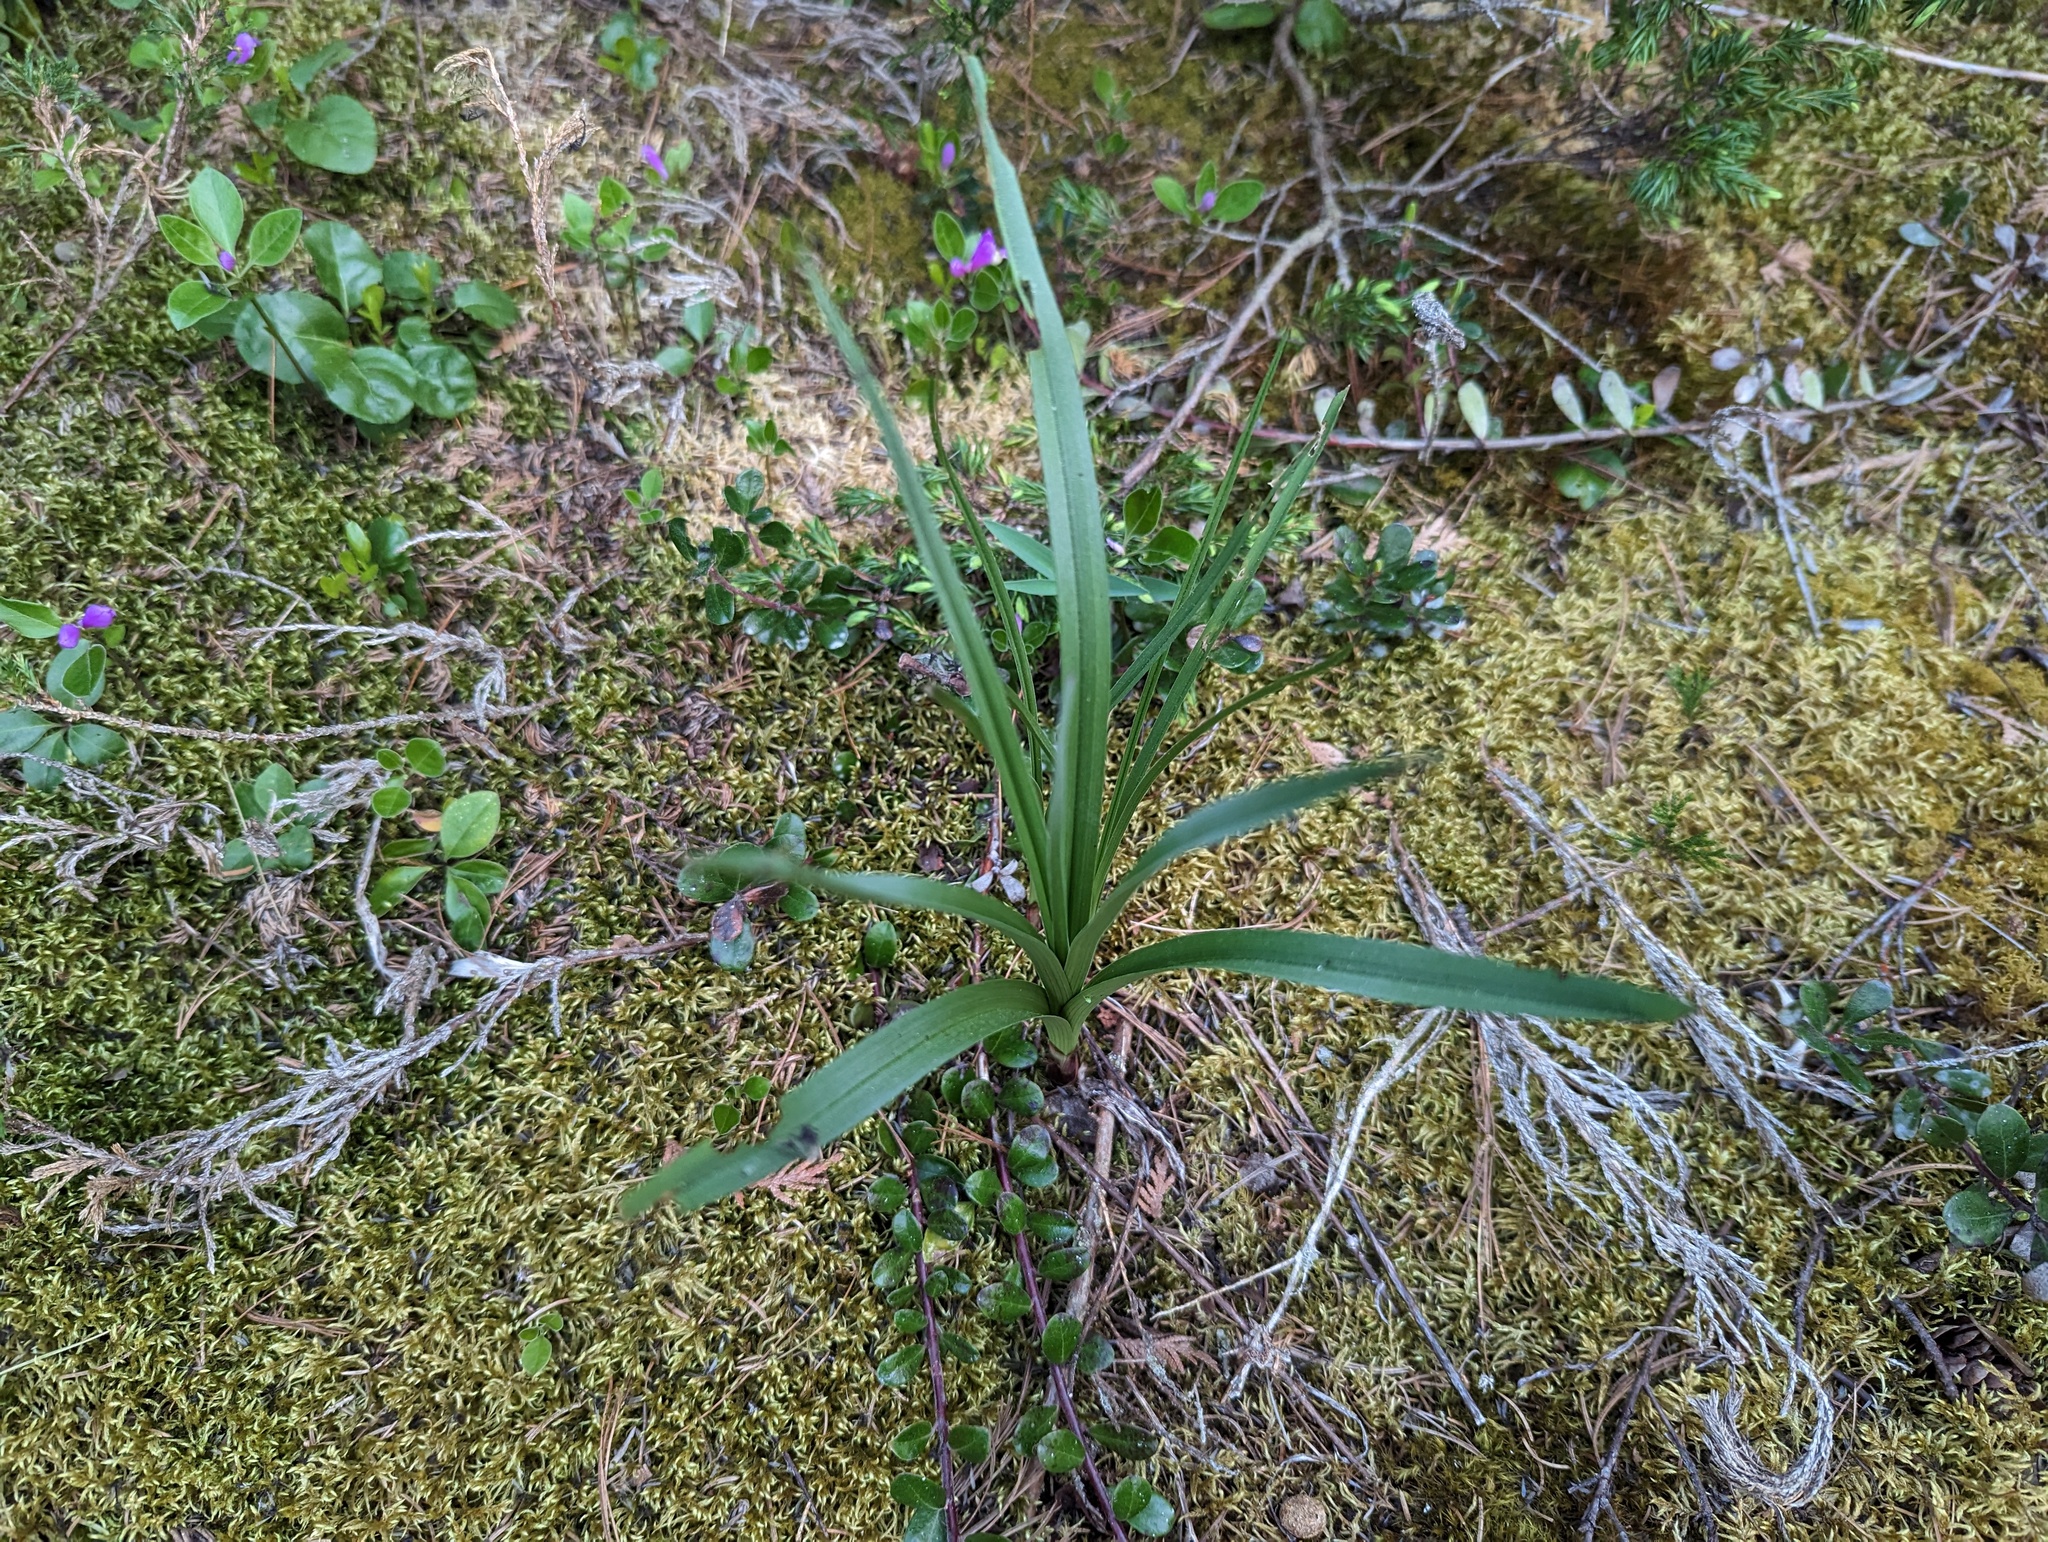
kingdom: Plantae
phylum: Tracheophyta
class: Liliopsida
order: Liliales
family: Melanthiaceae
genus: Anticlea
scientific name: Anticlea elegans
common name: Mountain death camas
